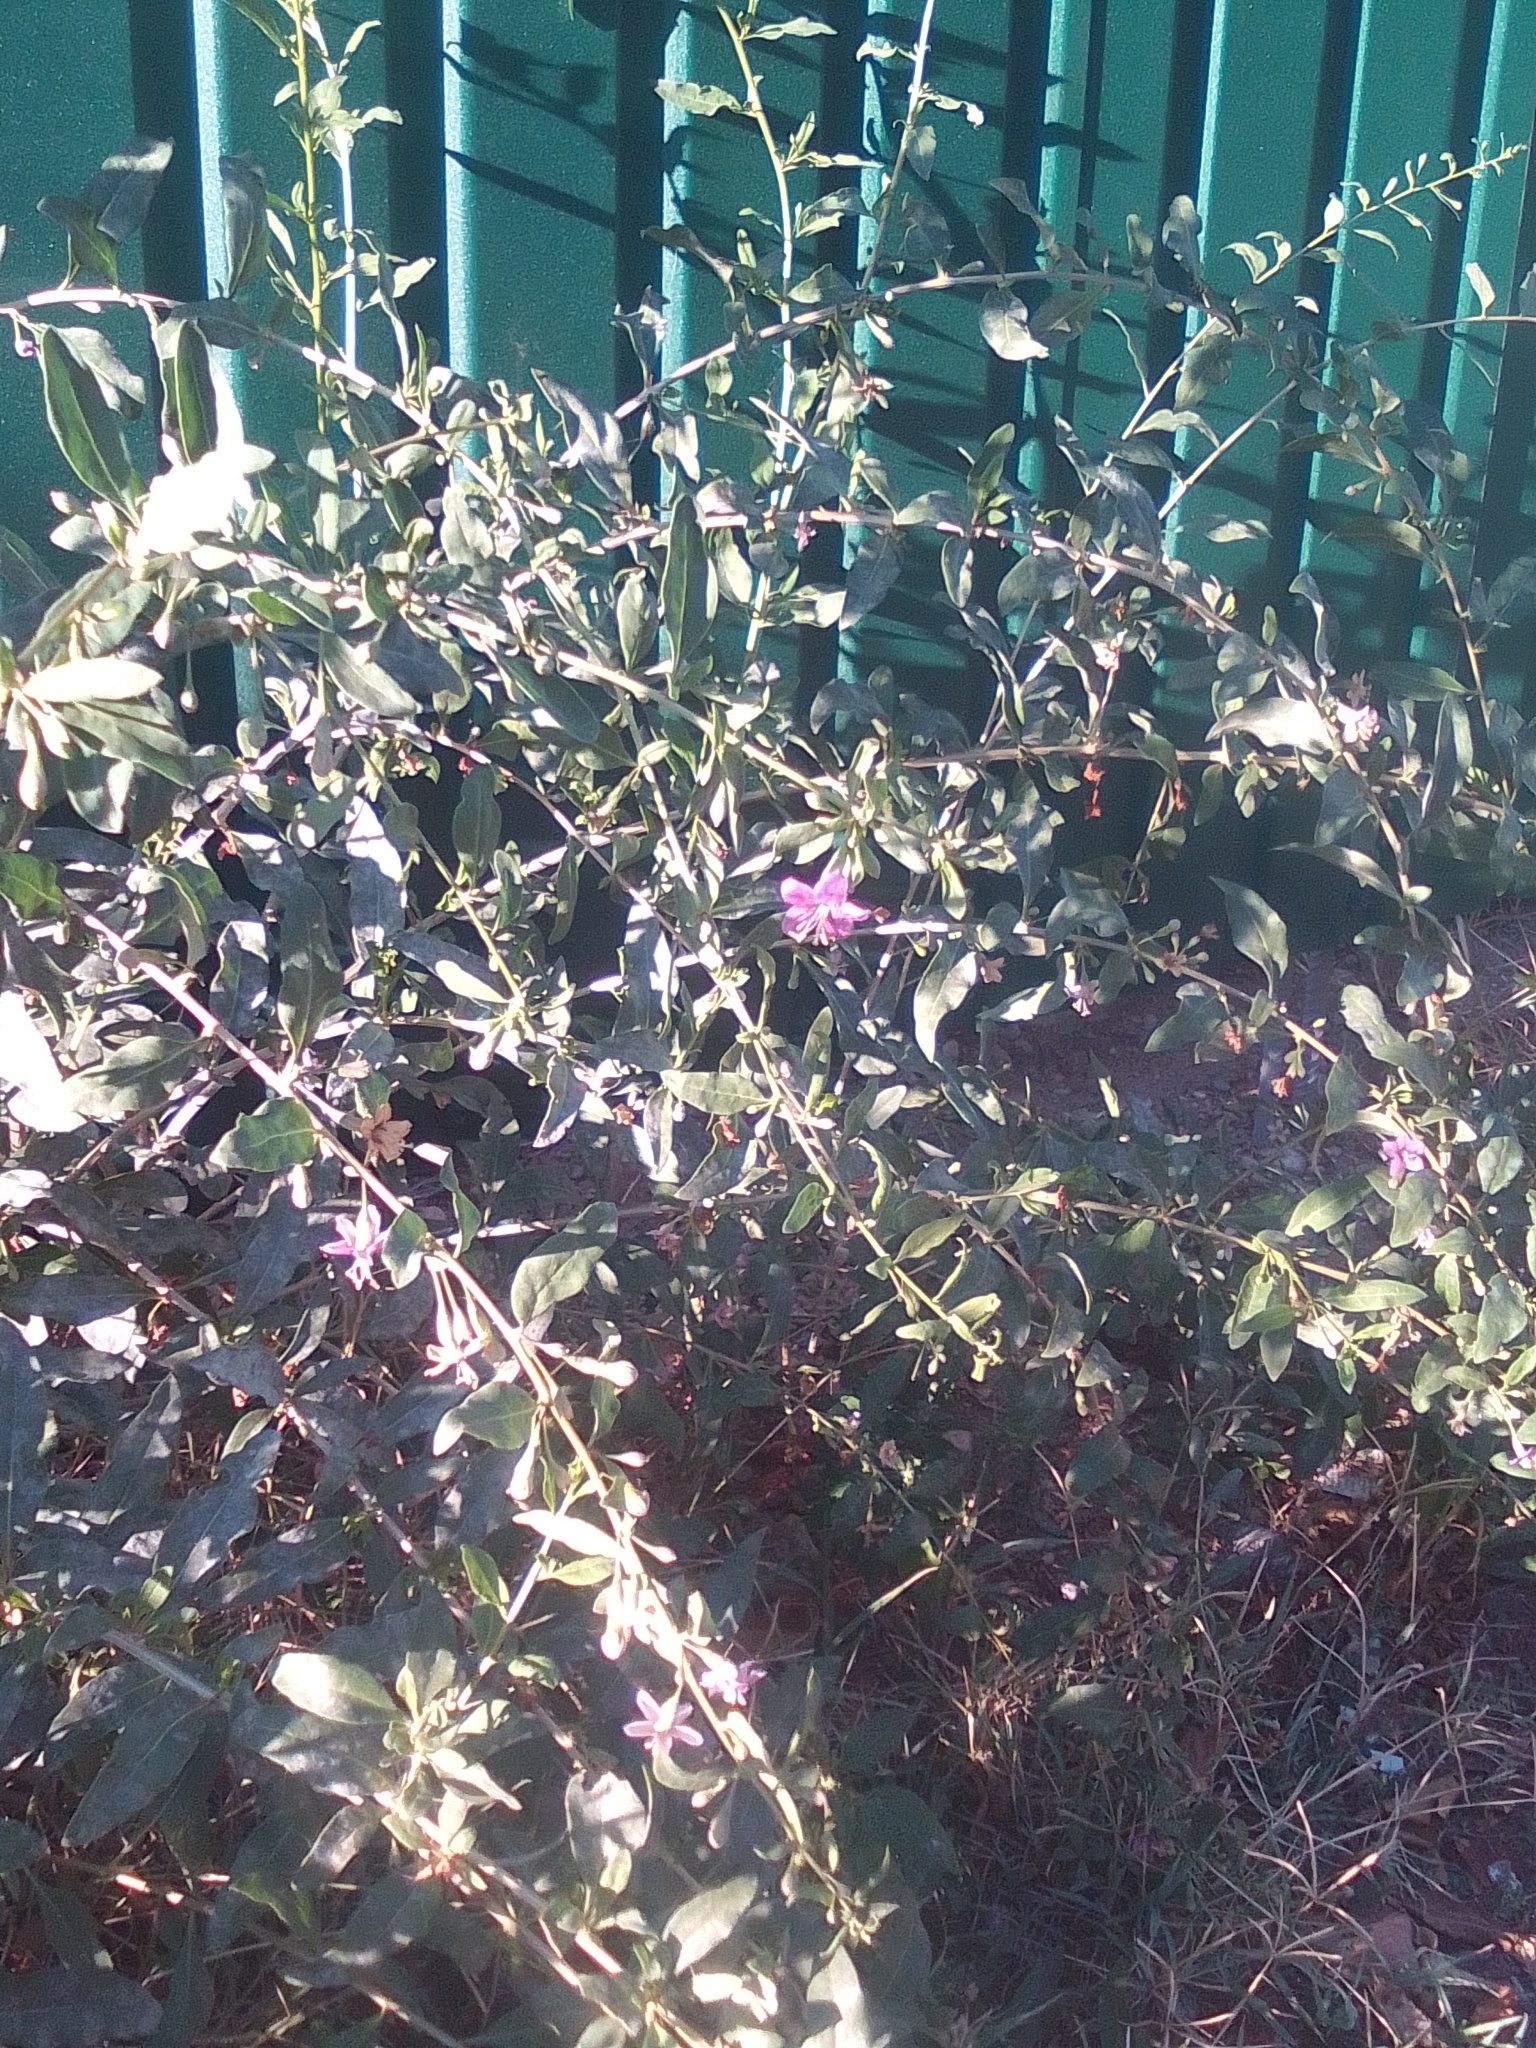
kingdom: Plantae
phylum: Tracheophyta
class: Magnoliopsida
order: Solanales
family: Solanaceae
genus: Lycium
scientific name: Lycium barbarum
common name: Duke of argyll's teaplant
